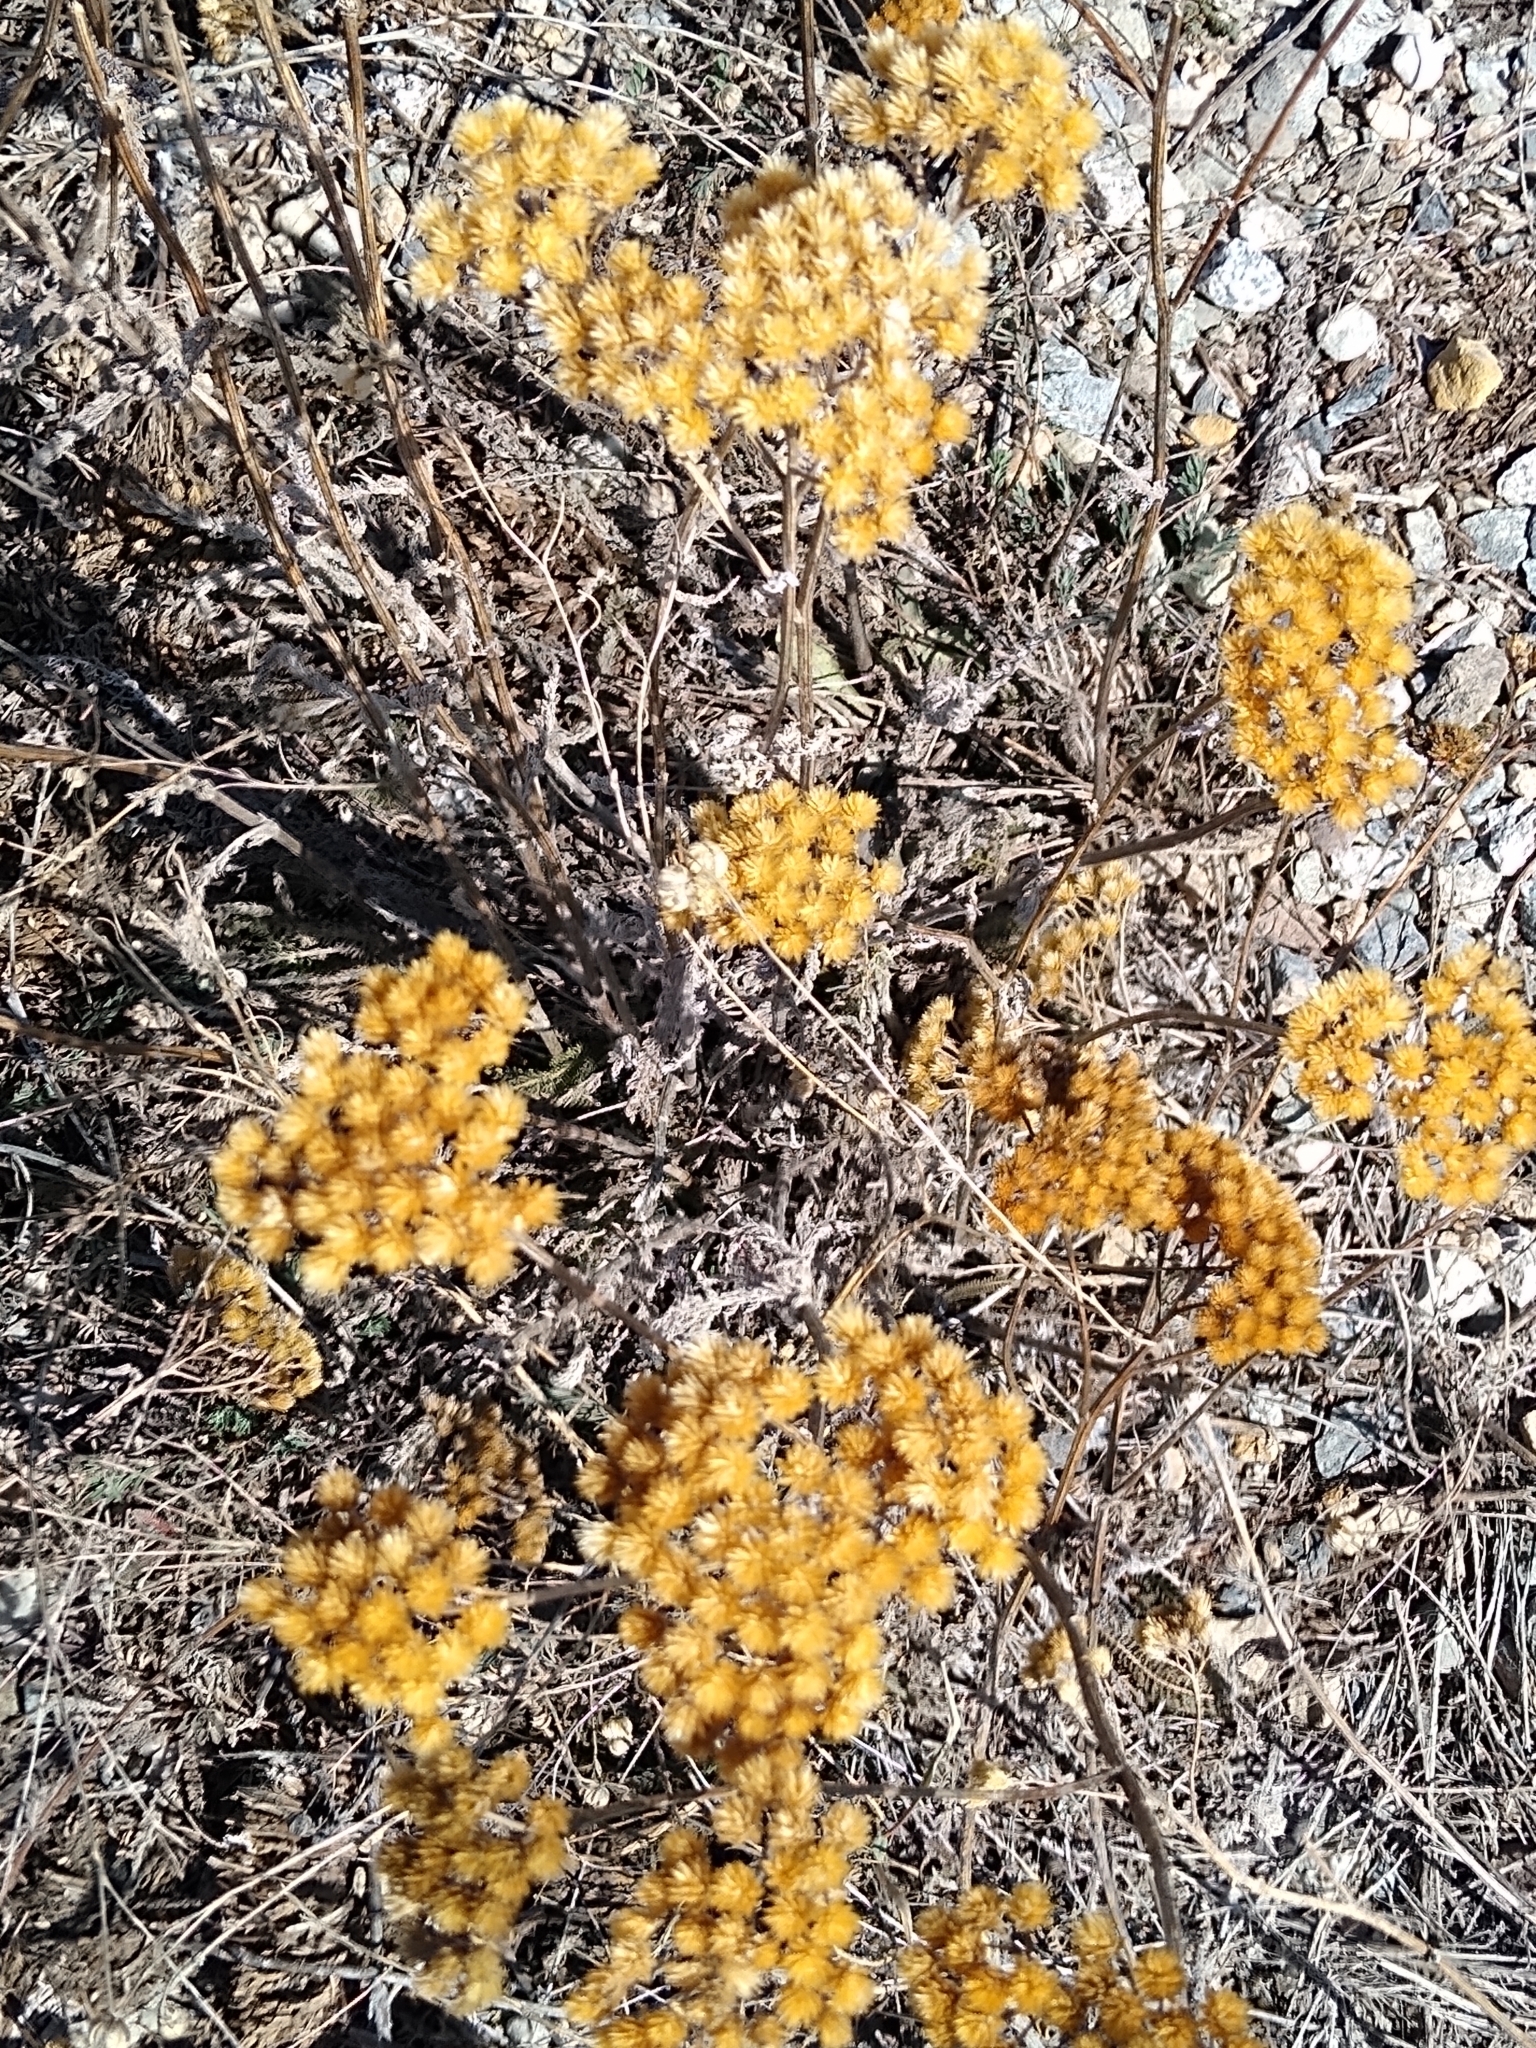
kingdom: Plantae
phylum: Tracheophyta
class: Magnoliopsida
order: Asterales
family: Asteraceae
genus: Achillea
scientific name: Achillea millefolium
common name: Yarrow
